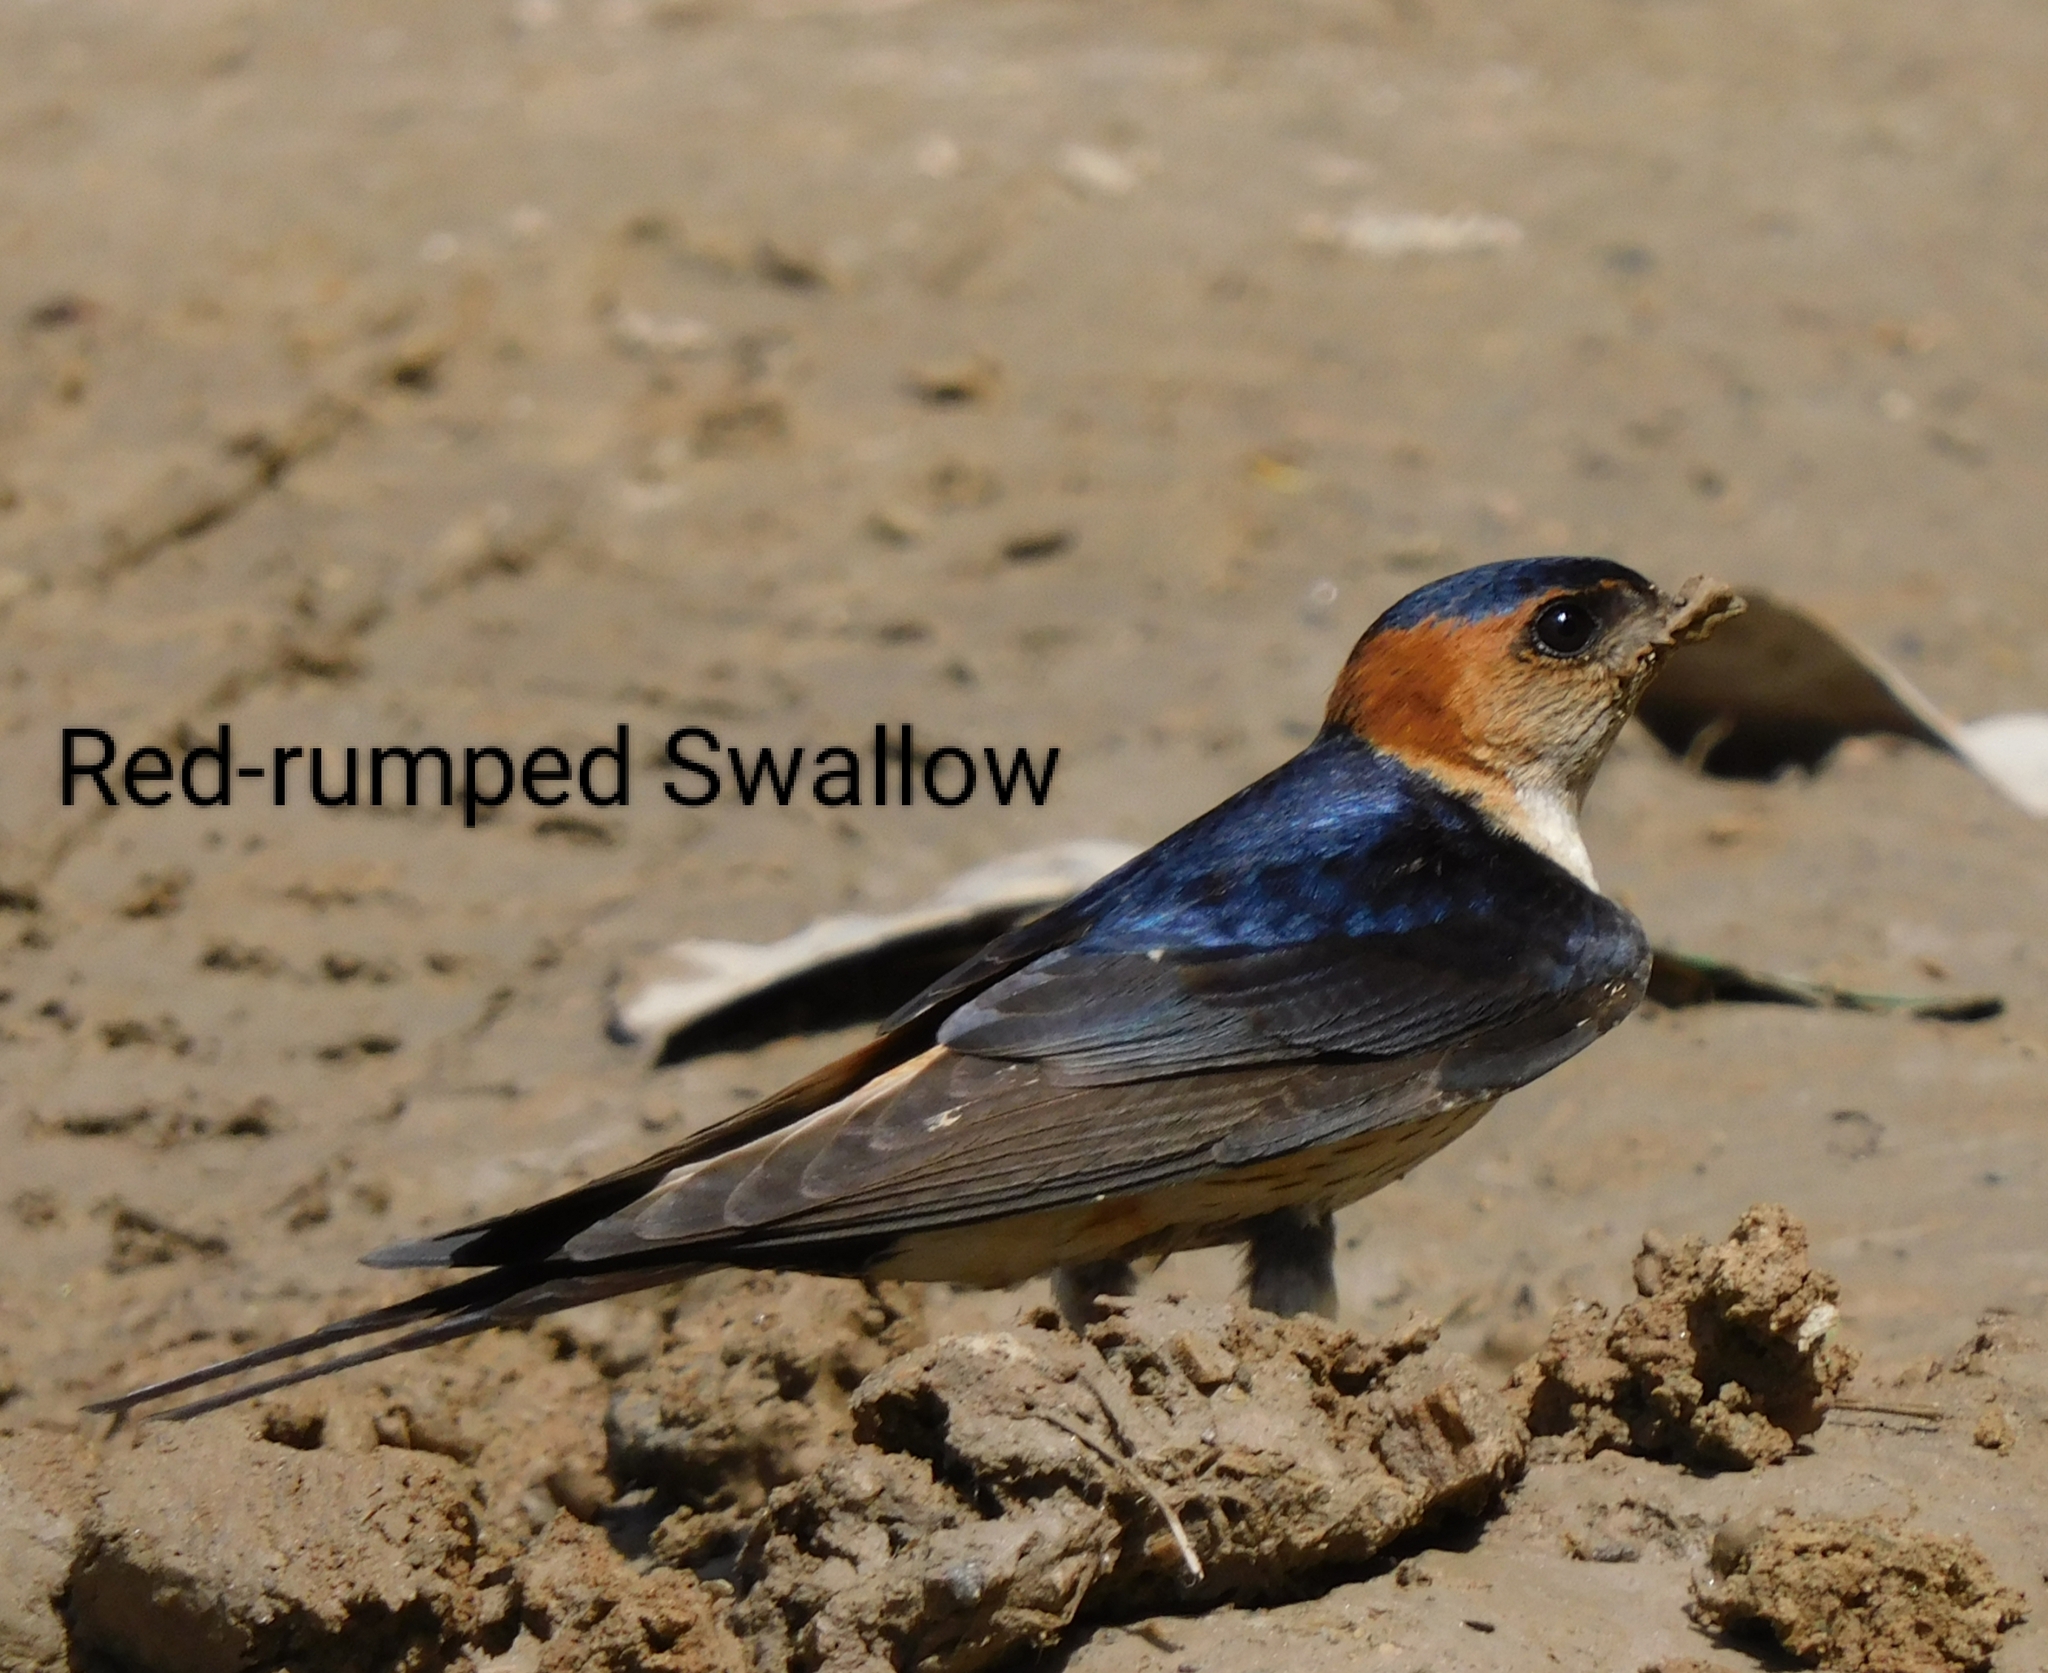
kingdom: Animalia
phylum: Chordata
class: Aves
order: Passeriformes
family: Hirundinidae
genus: Cecropis
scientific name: Cecropis daurica
